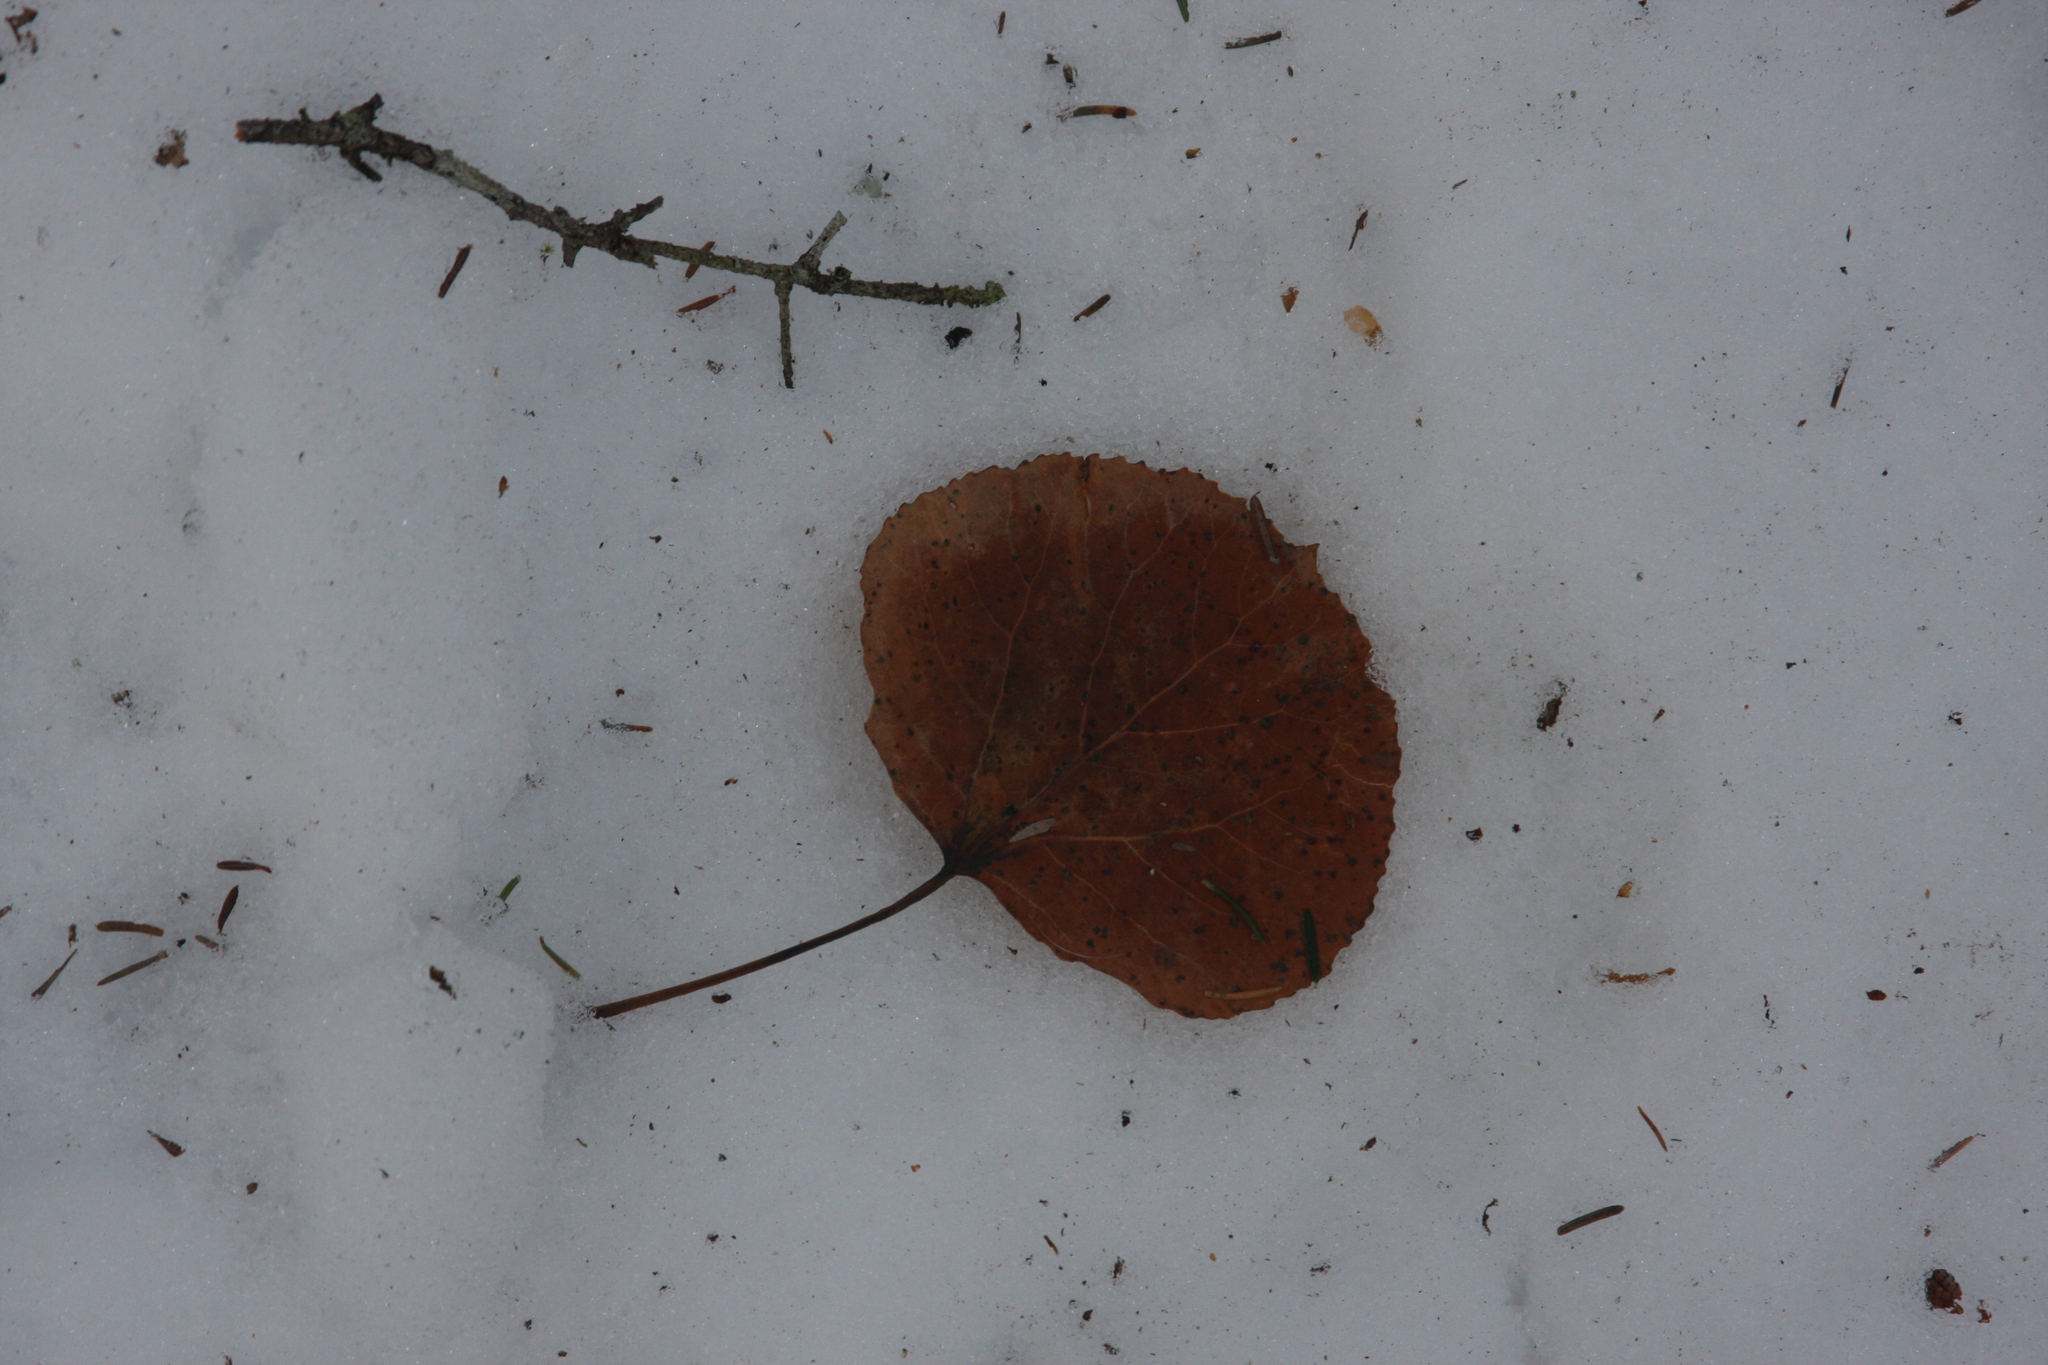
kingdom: Plantae
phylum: Tracheophyta
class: Magnoliopsida
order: Malpighiales
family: Salicaceae
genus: Populus
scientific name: Populus tremuloides
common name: Quaking aspen
